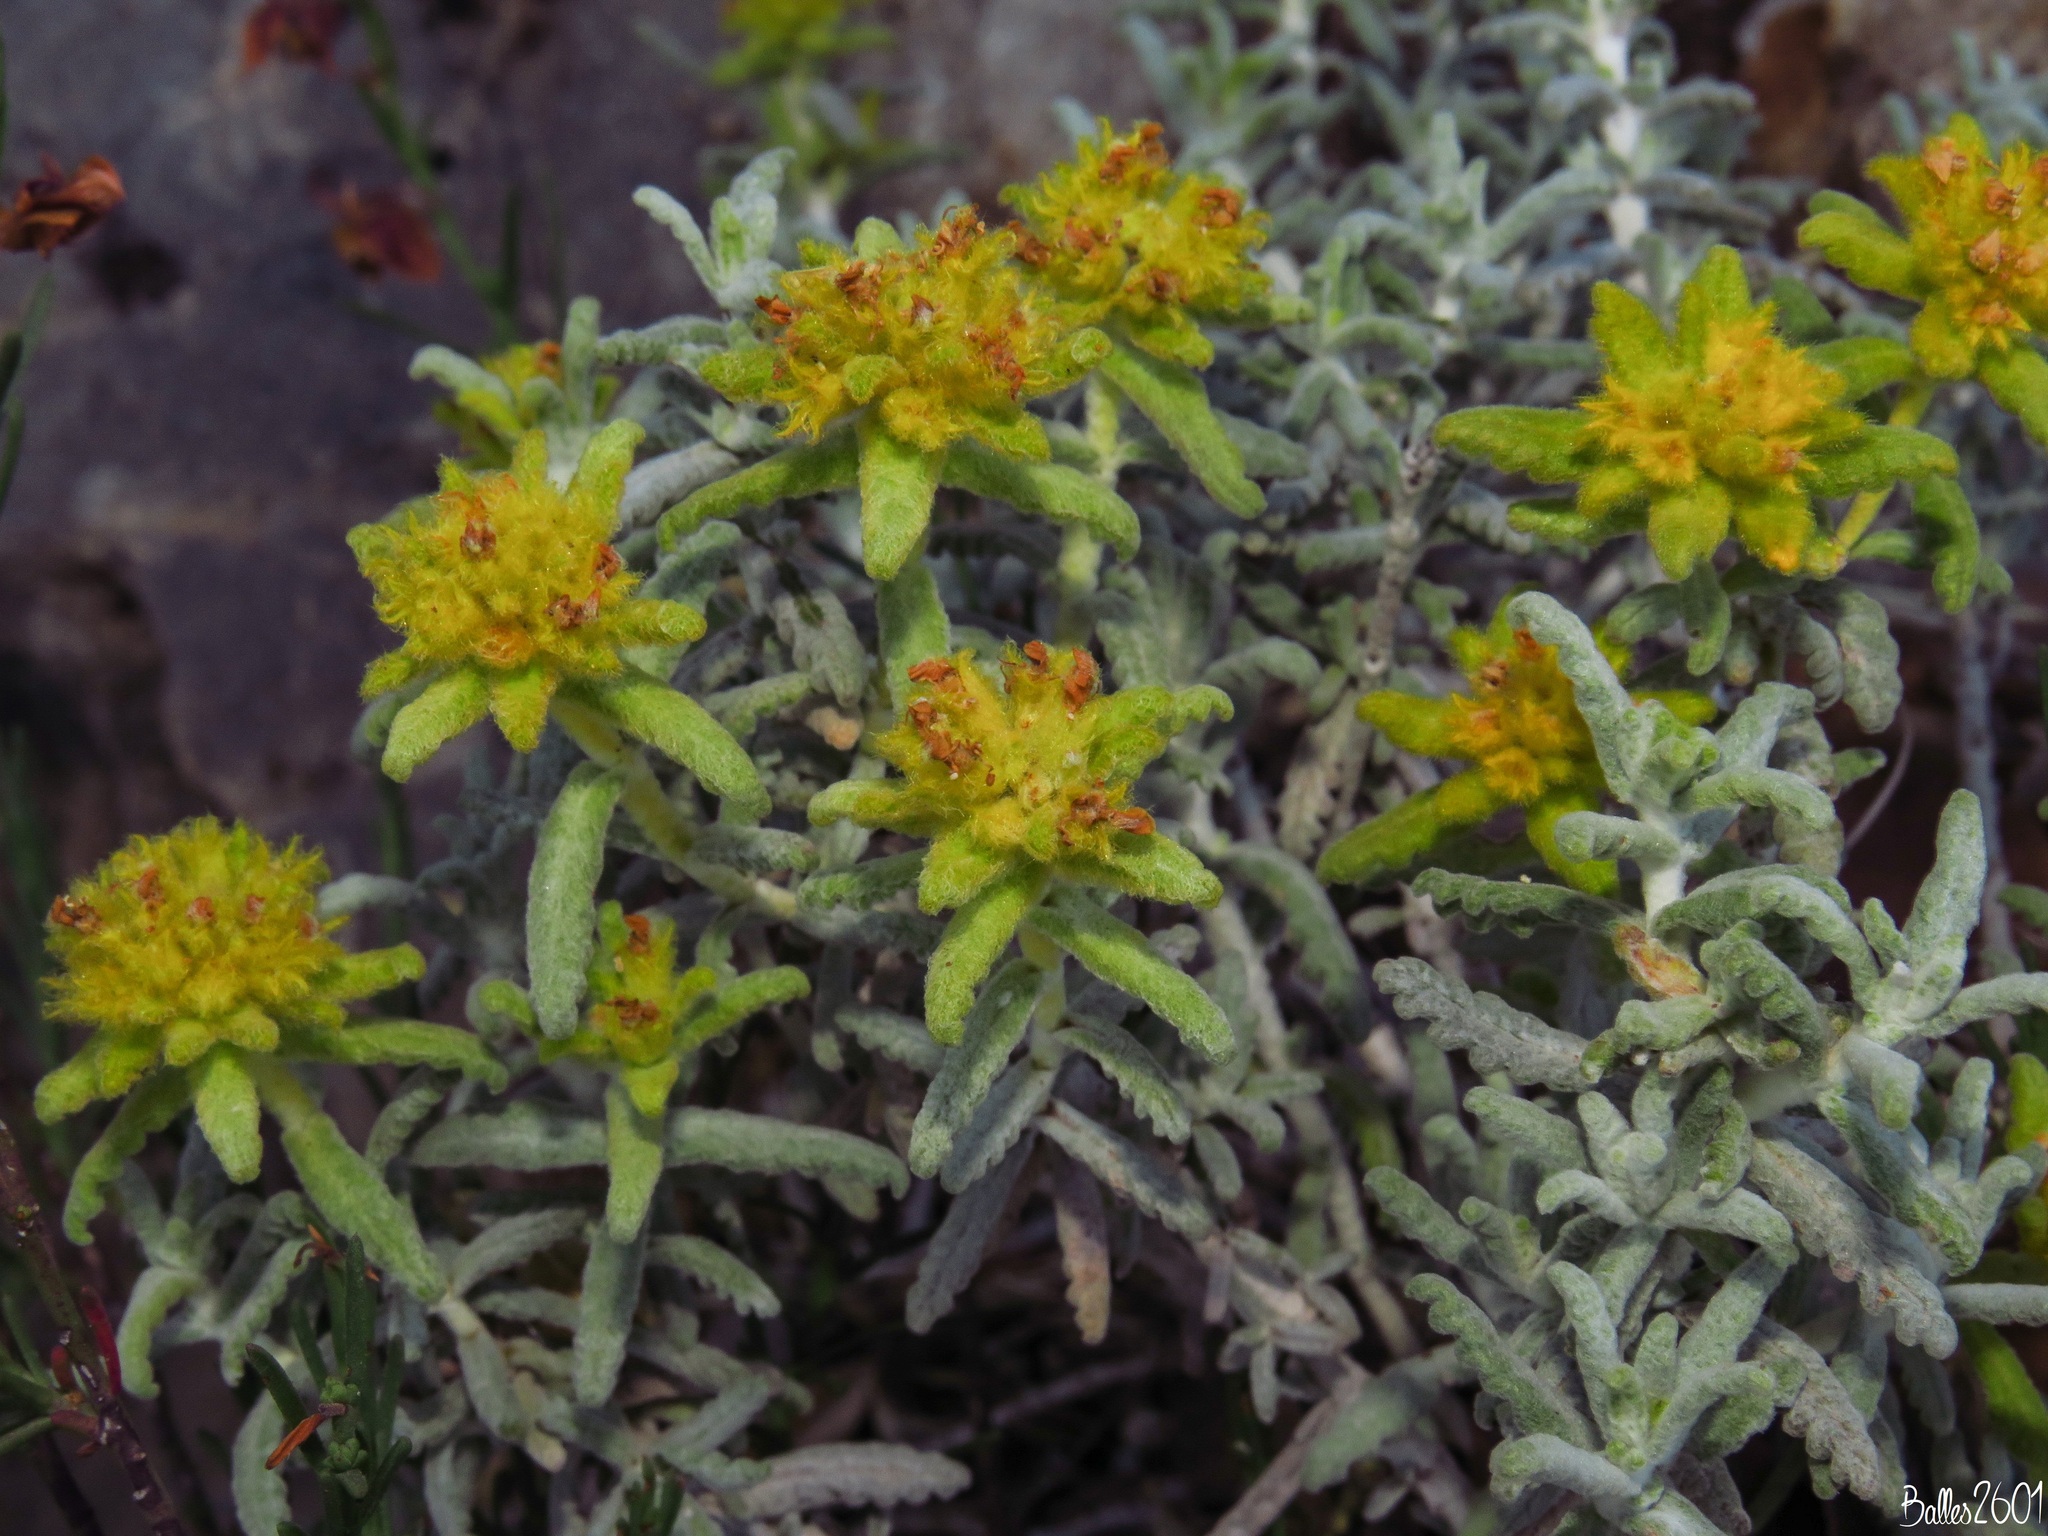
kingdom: Plantae
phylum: Tracheophyta
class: Magnoliopsida
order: Lamiales
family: Lamiaceae
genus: Teucrium
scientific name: Teucrium aureum
